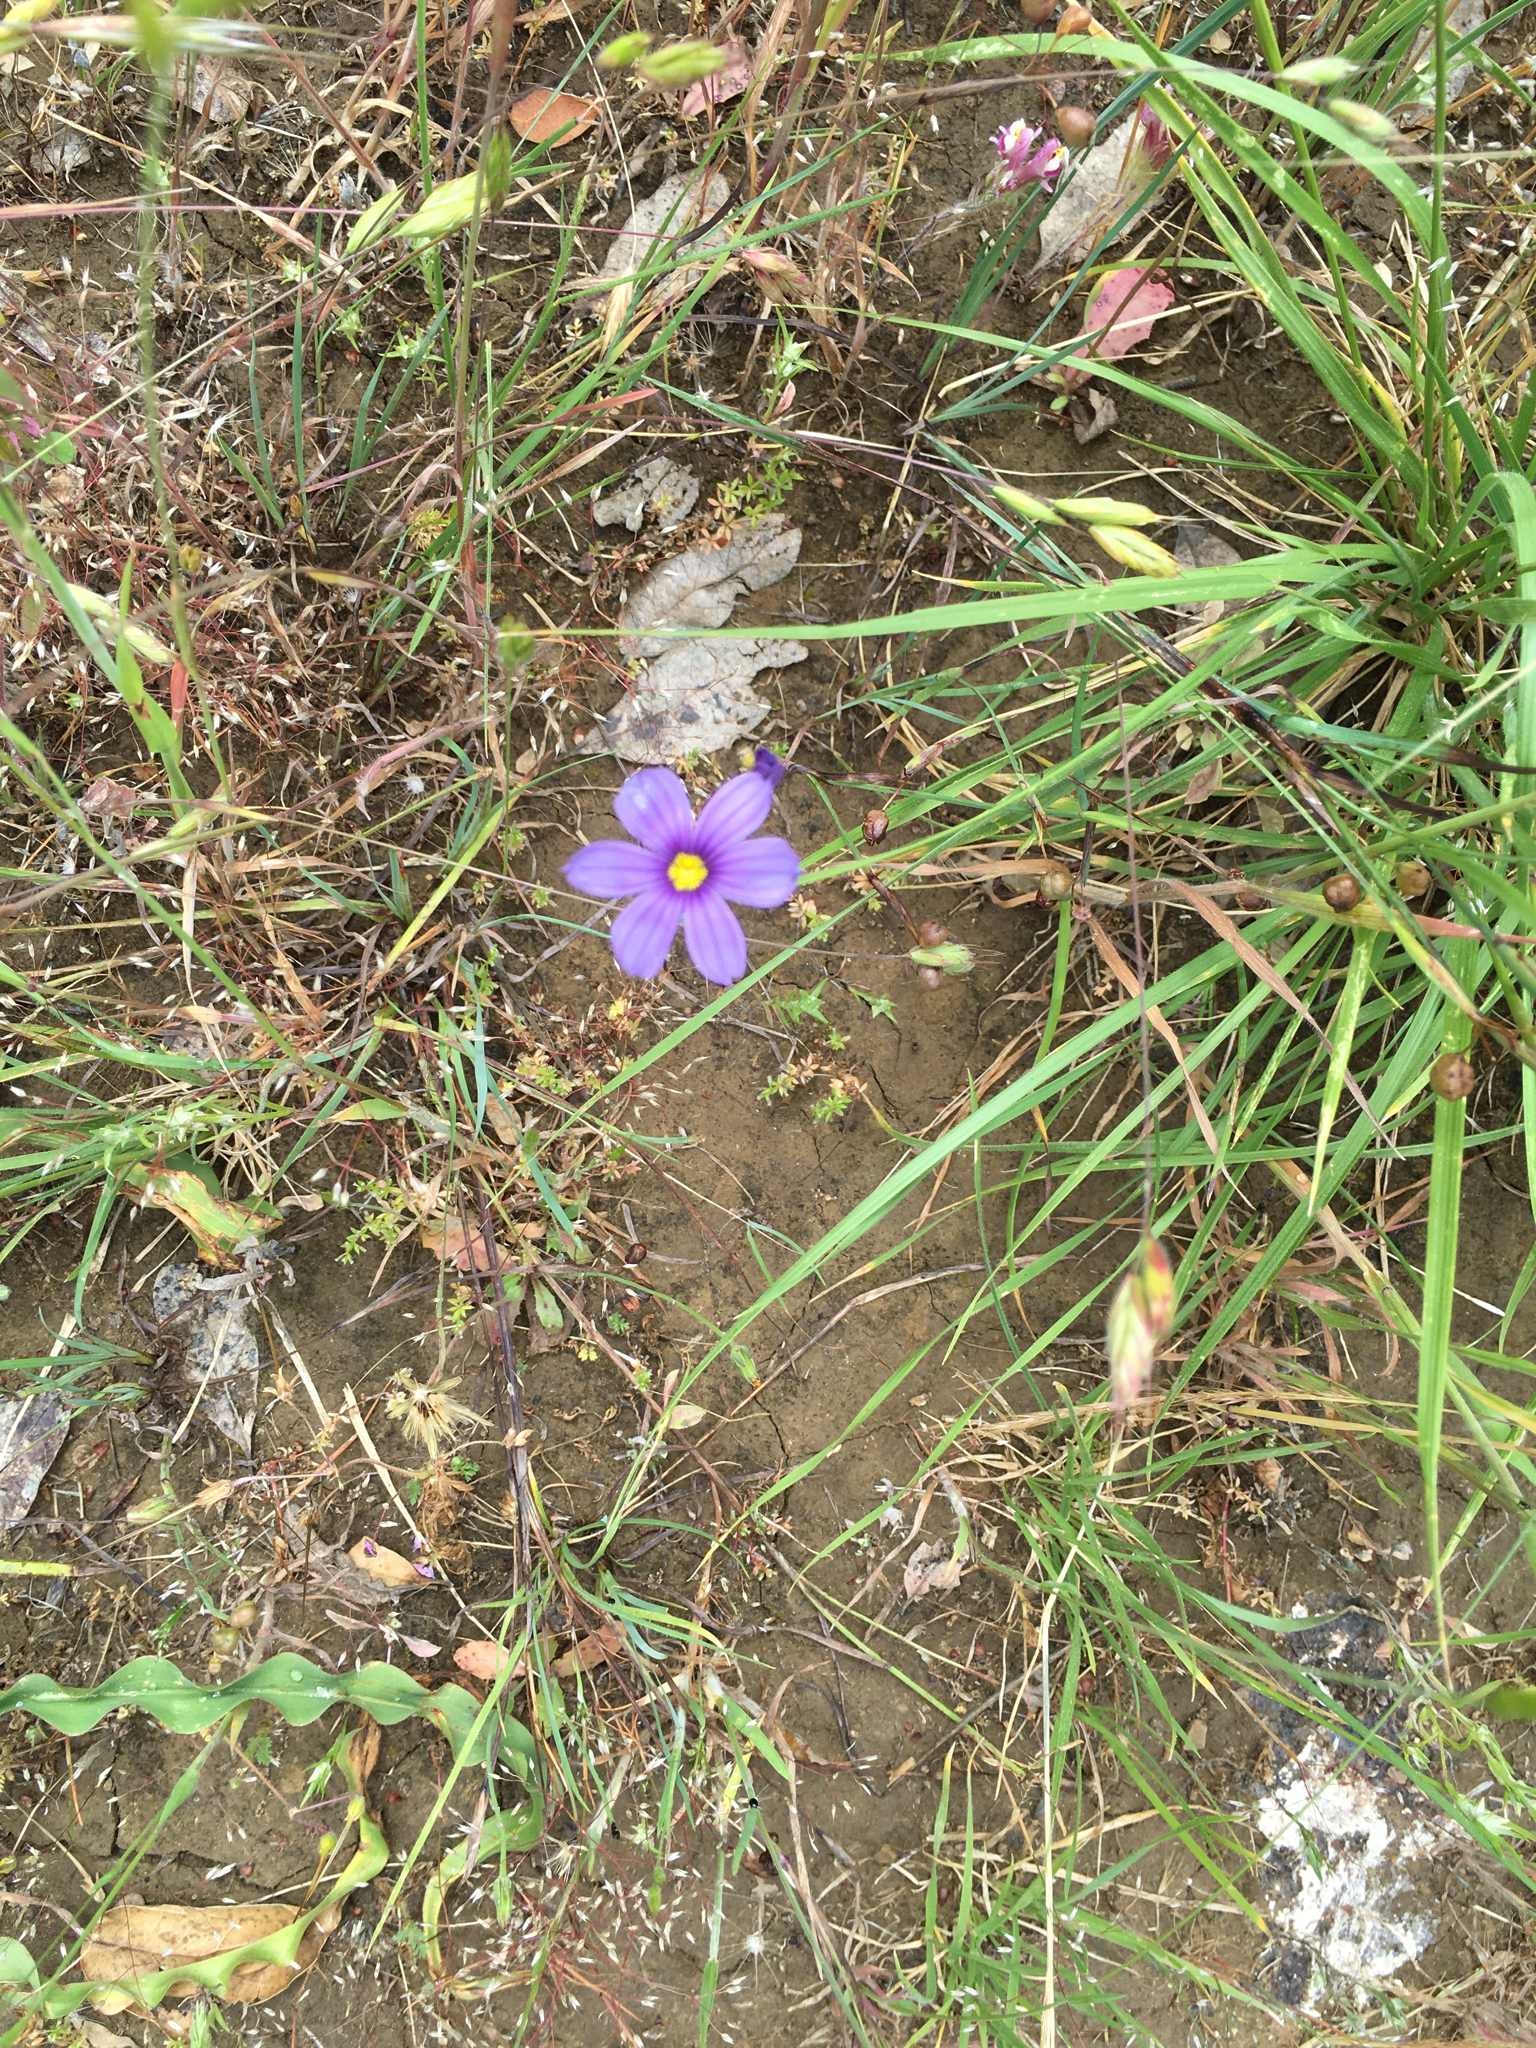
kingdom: Plantae
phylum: Tracheophyta
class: Liliopsida
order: Asparagales
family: Iridaceae
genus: Sisyrinchium
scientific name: Sisyrinchium bellum
